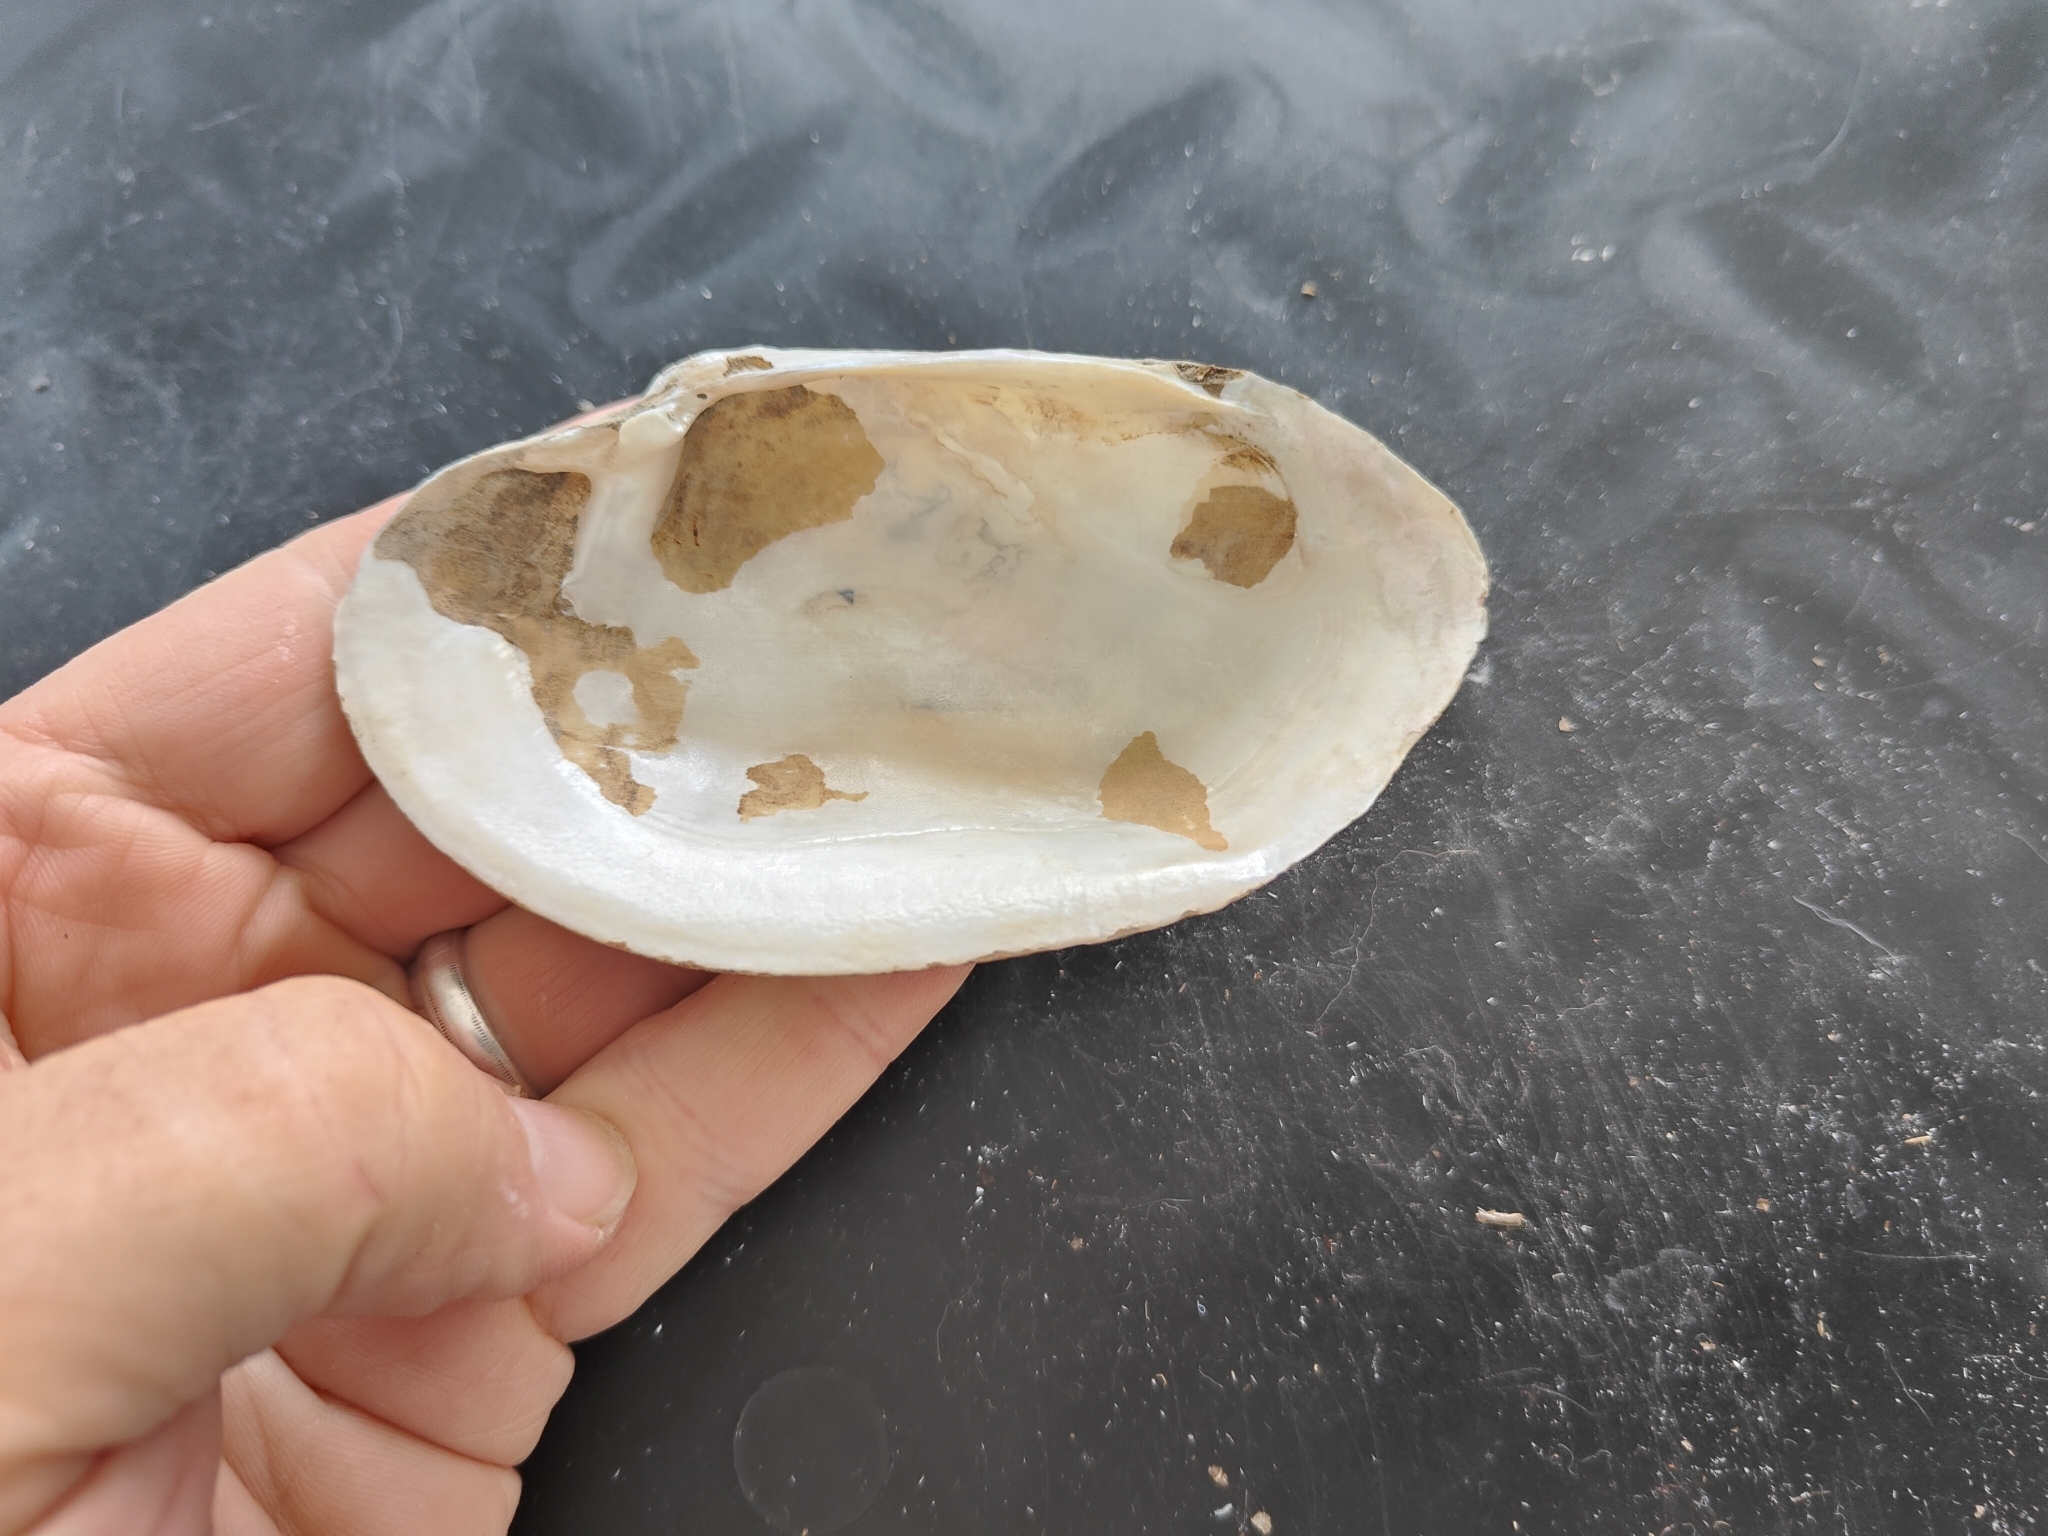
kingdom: Animalia
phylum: Mollusca
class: Bivalvia
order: Unionida
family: Unionidae
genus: Lampsilis
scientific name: Lampsilis siliquoidea
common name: Fatmucket
